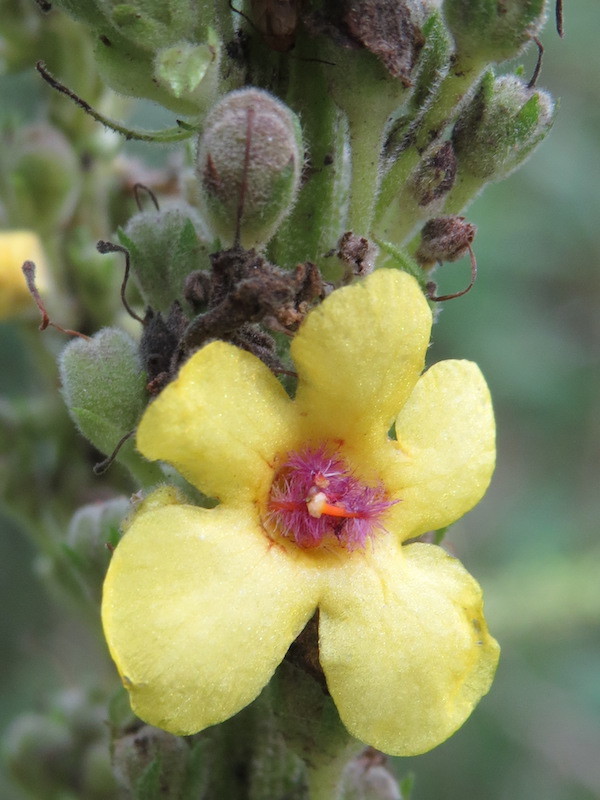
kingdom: Plantae
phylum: Tracheophyta
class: Magnoliopsida
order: Lamiales
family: Scrophulariaceae
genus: Verbascum
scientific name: Verbascum nigrum
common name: Dark mullein
